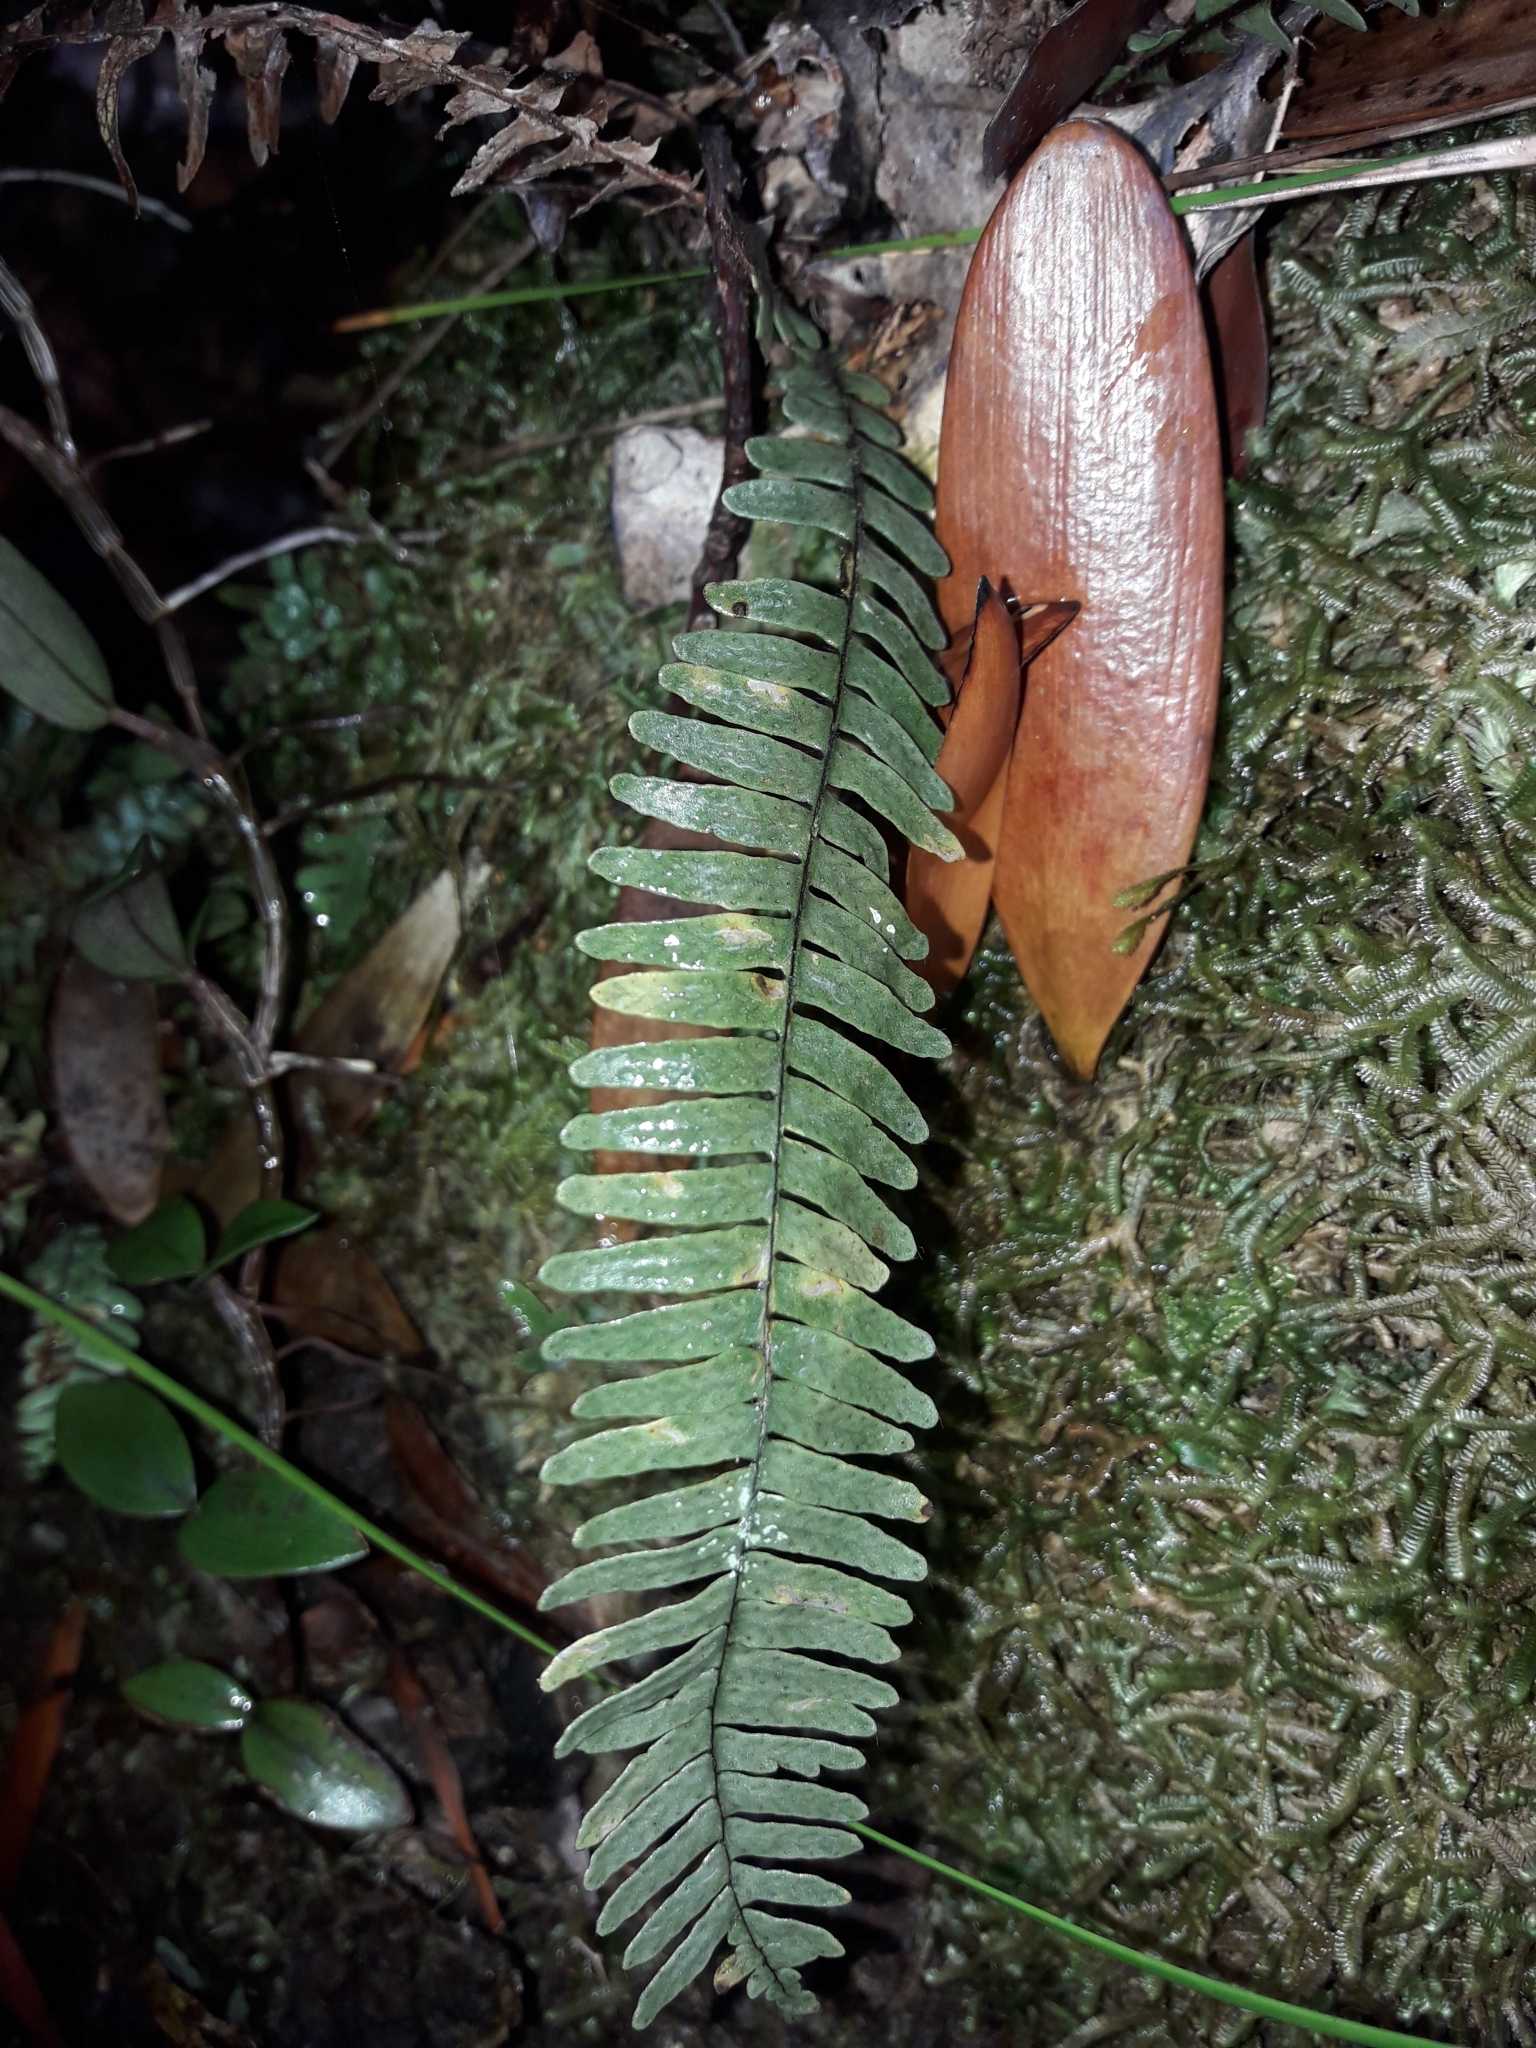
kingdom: Plantae
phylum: Tracheophyta
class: Polypodiopsida
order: Polypodiales
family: Polypodiaceae
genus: Ctenopterella
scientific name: Ctenopterella lasiostipes
